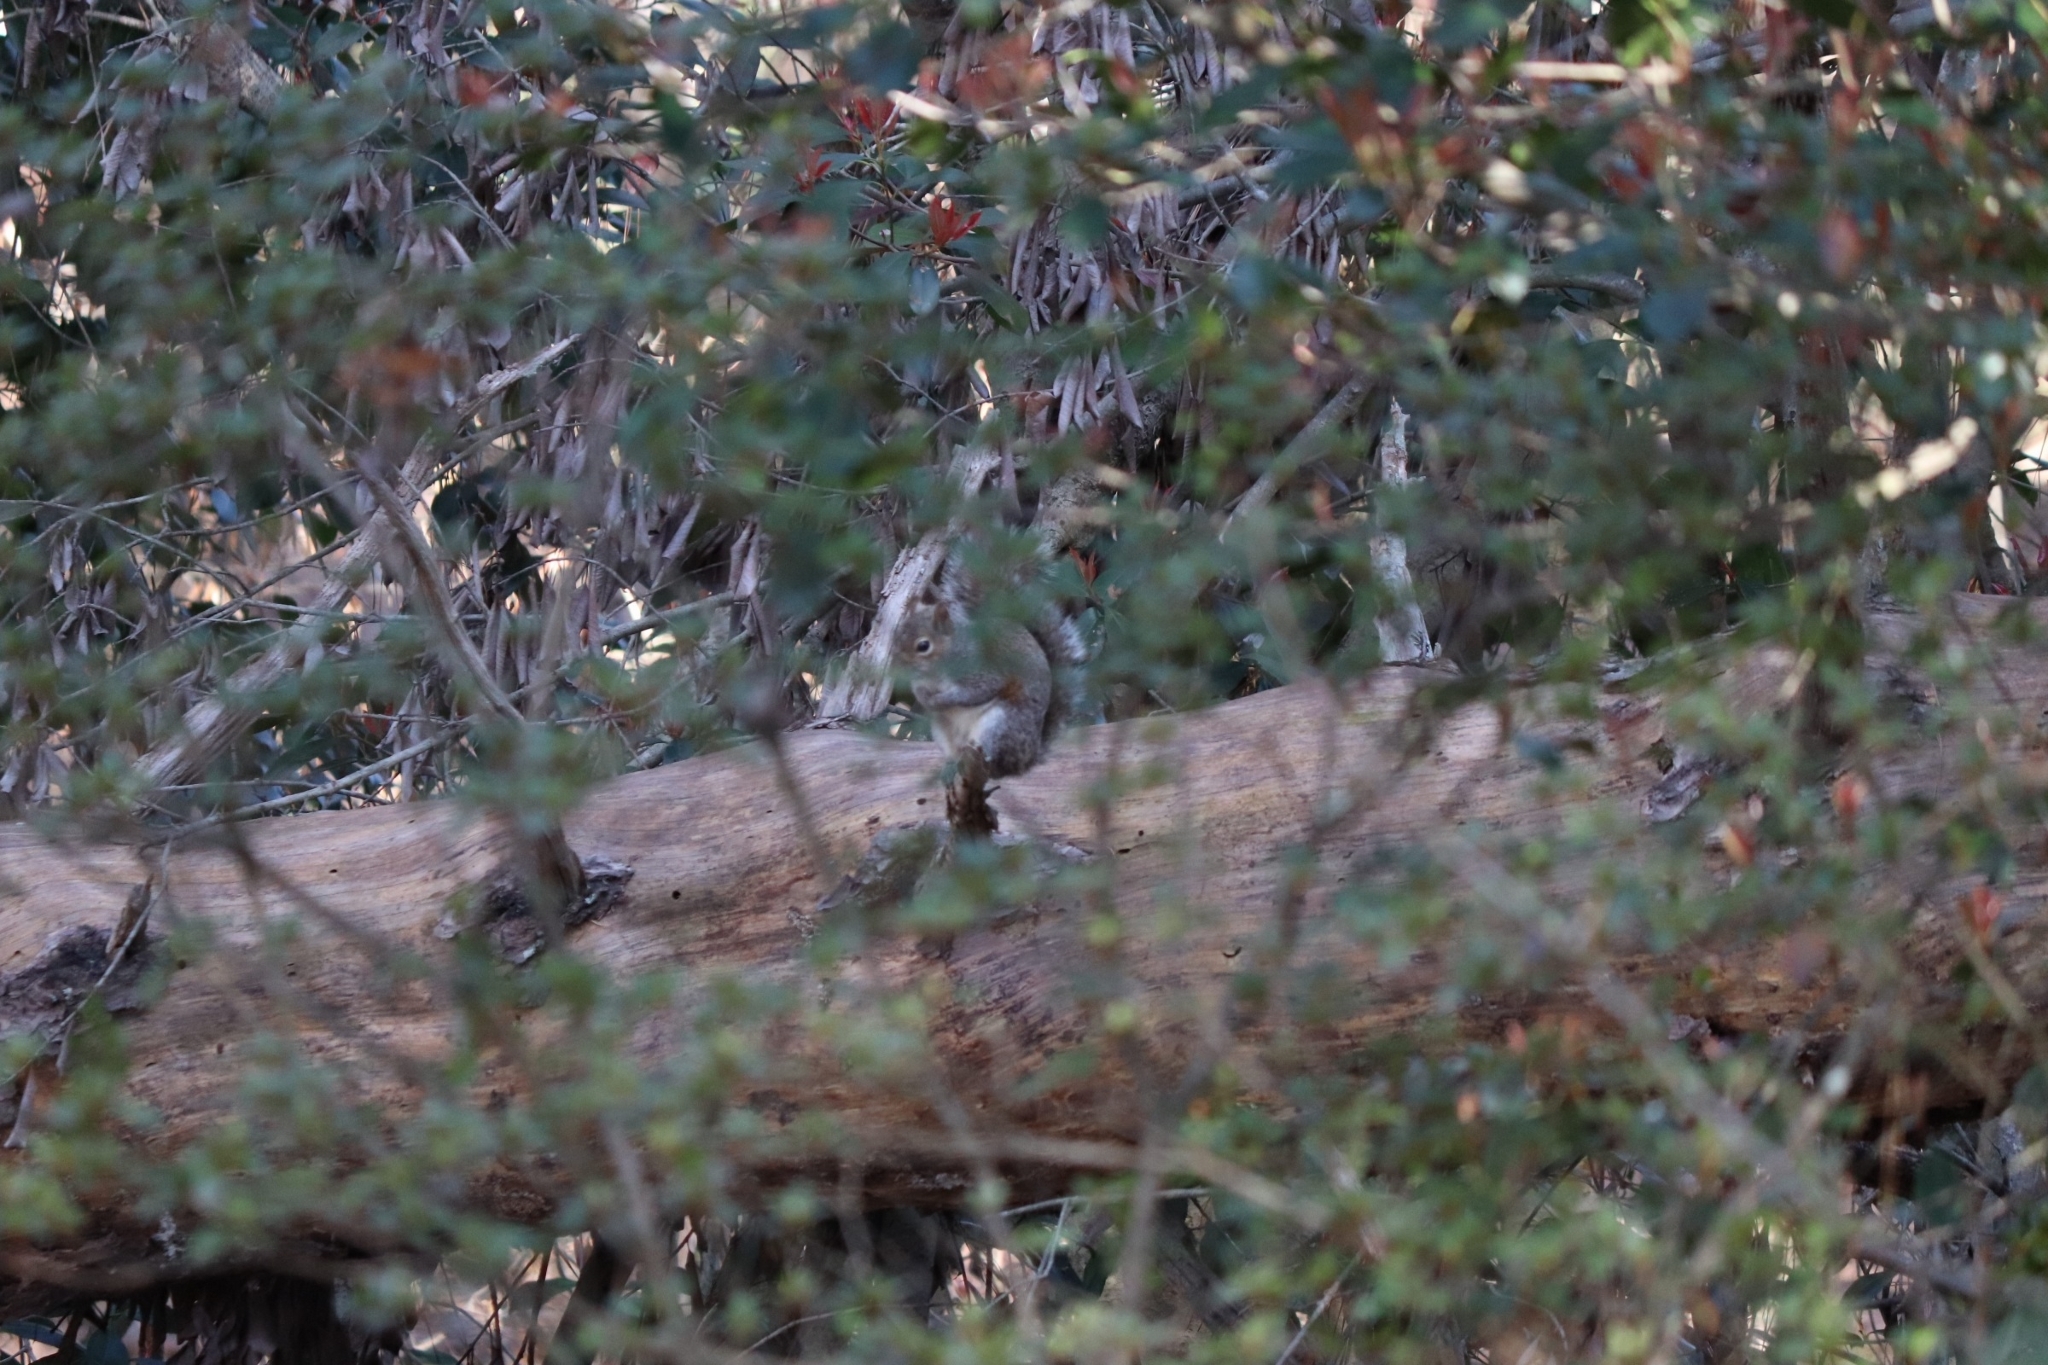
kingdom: Animalia
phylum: Chordata
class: Mammalia
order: Rodentia
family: Sciuridae
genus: Sciurus
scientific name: Sciurus carolinensis
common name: Eastern gray squirrel
